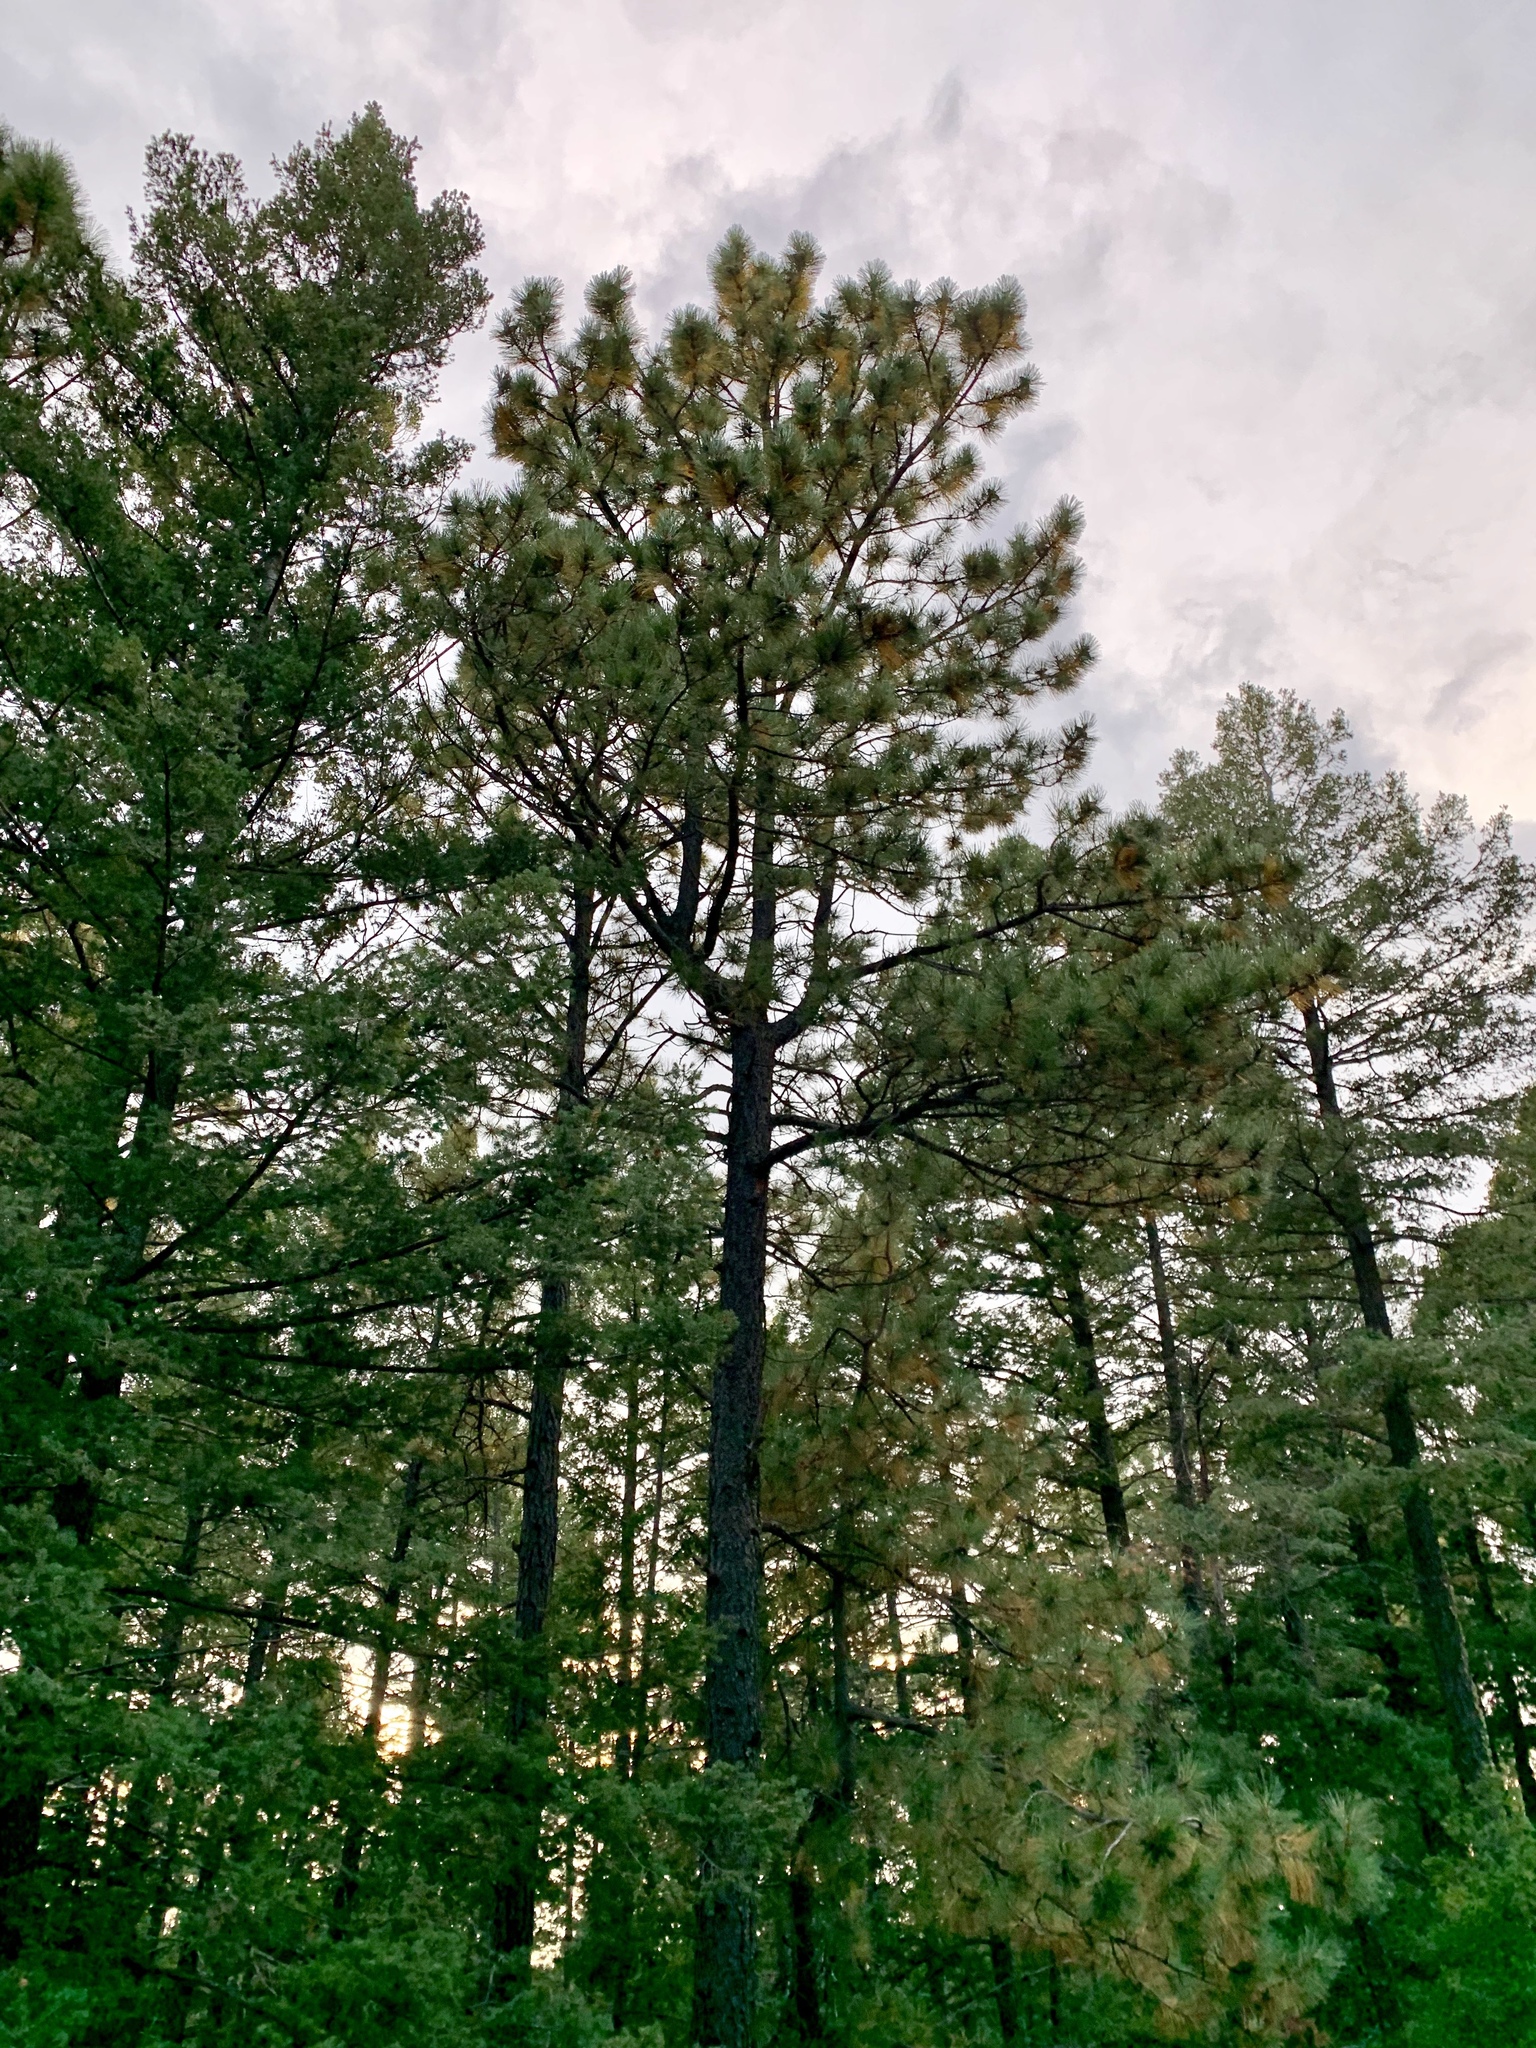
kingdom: Plantae
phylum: Tracheophyta
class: Pinopsida
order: Pinales
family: Pinaceae
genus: Pinus
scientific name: Pinus ponderosa
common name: Western yellow-pine
